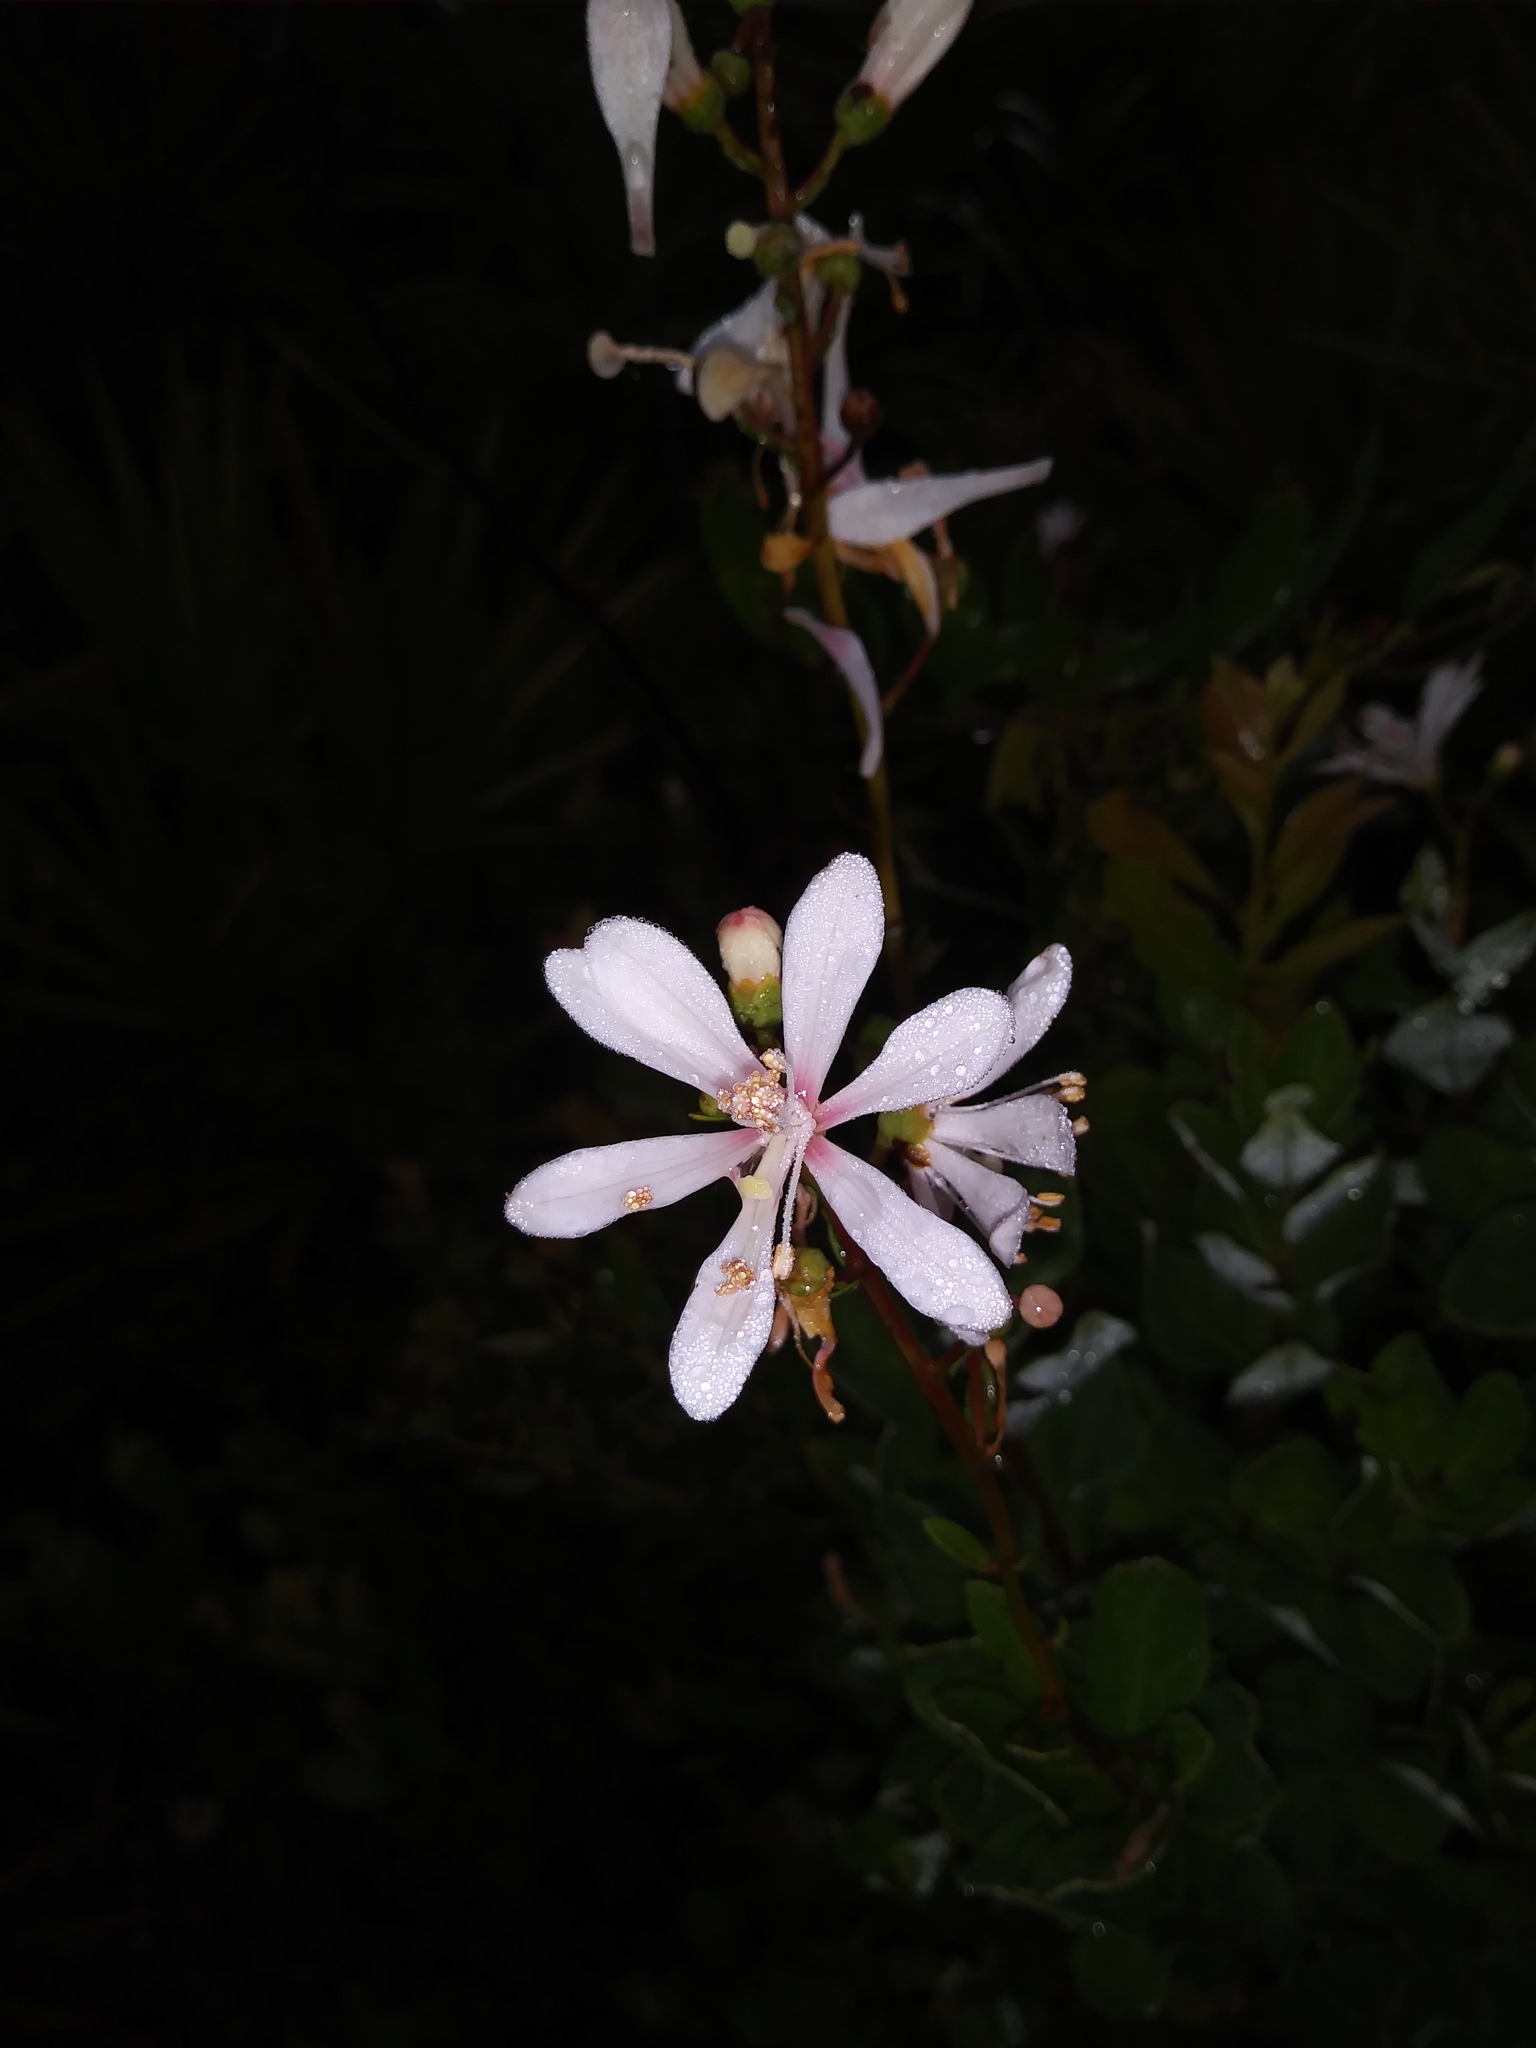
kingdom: Plantae
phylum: Tracheophyta
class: Magnoliopsida
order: Ericales
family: Ericaceae
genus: Bejaria
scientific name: Bejaria racemosa
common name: Tarflower
